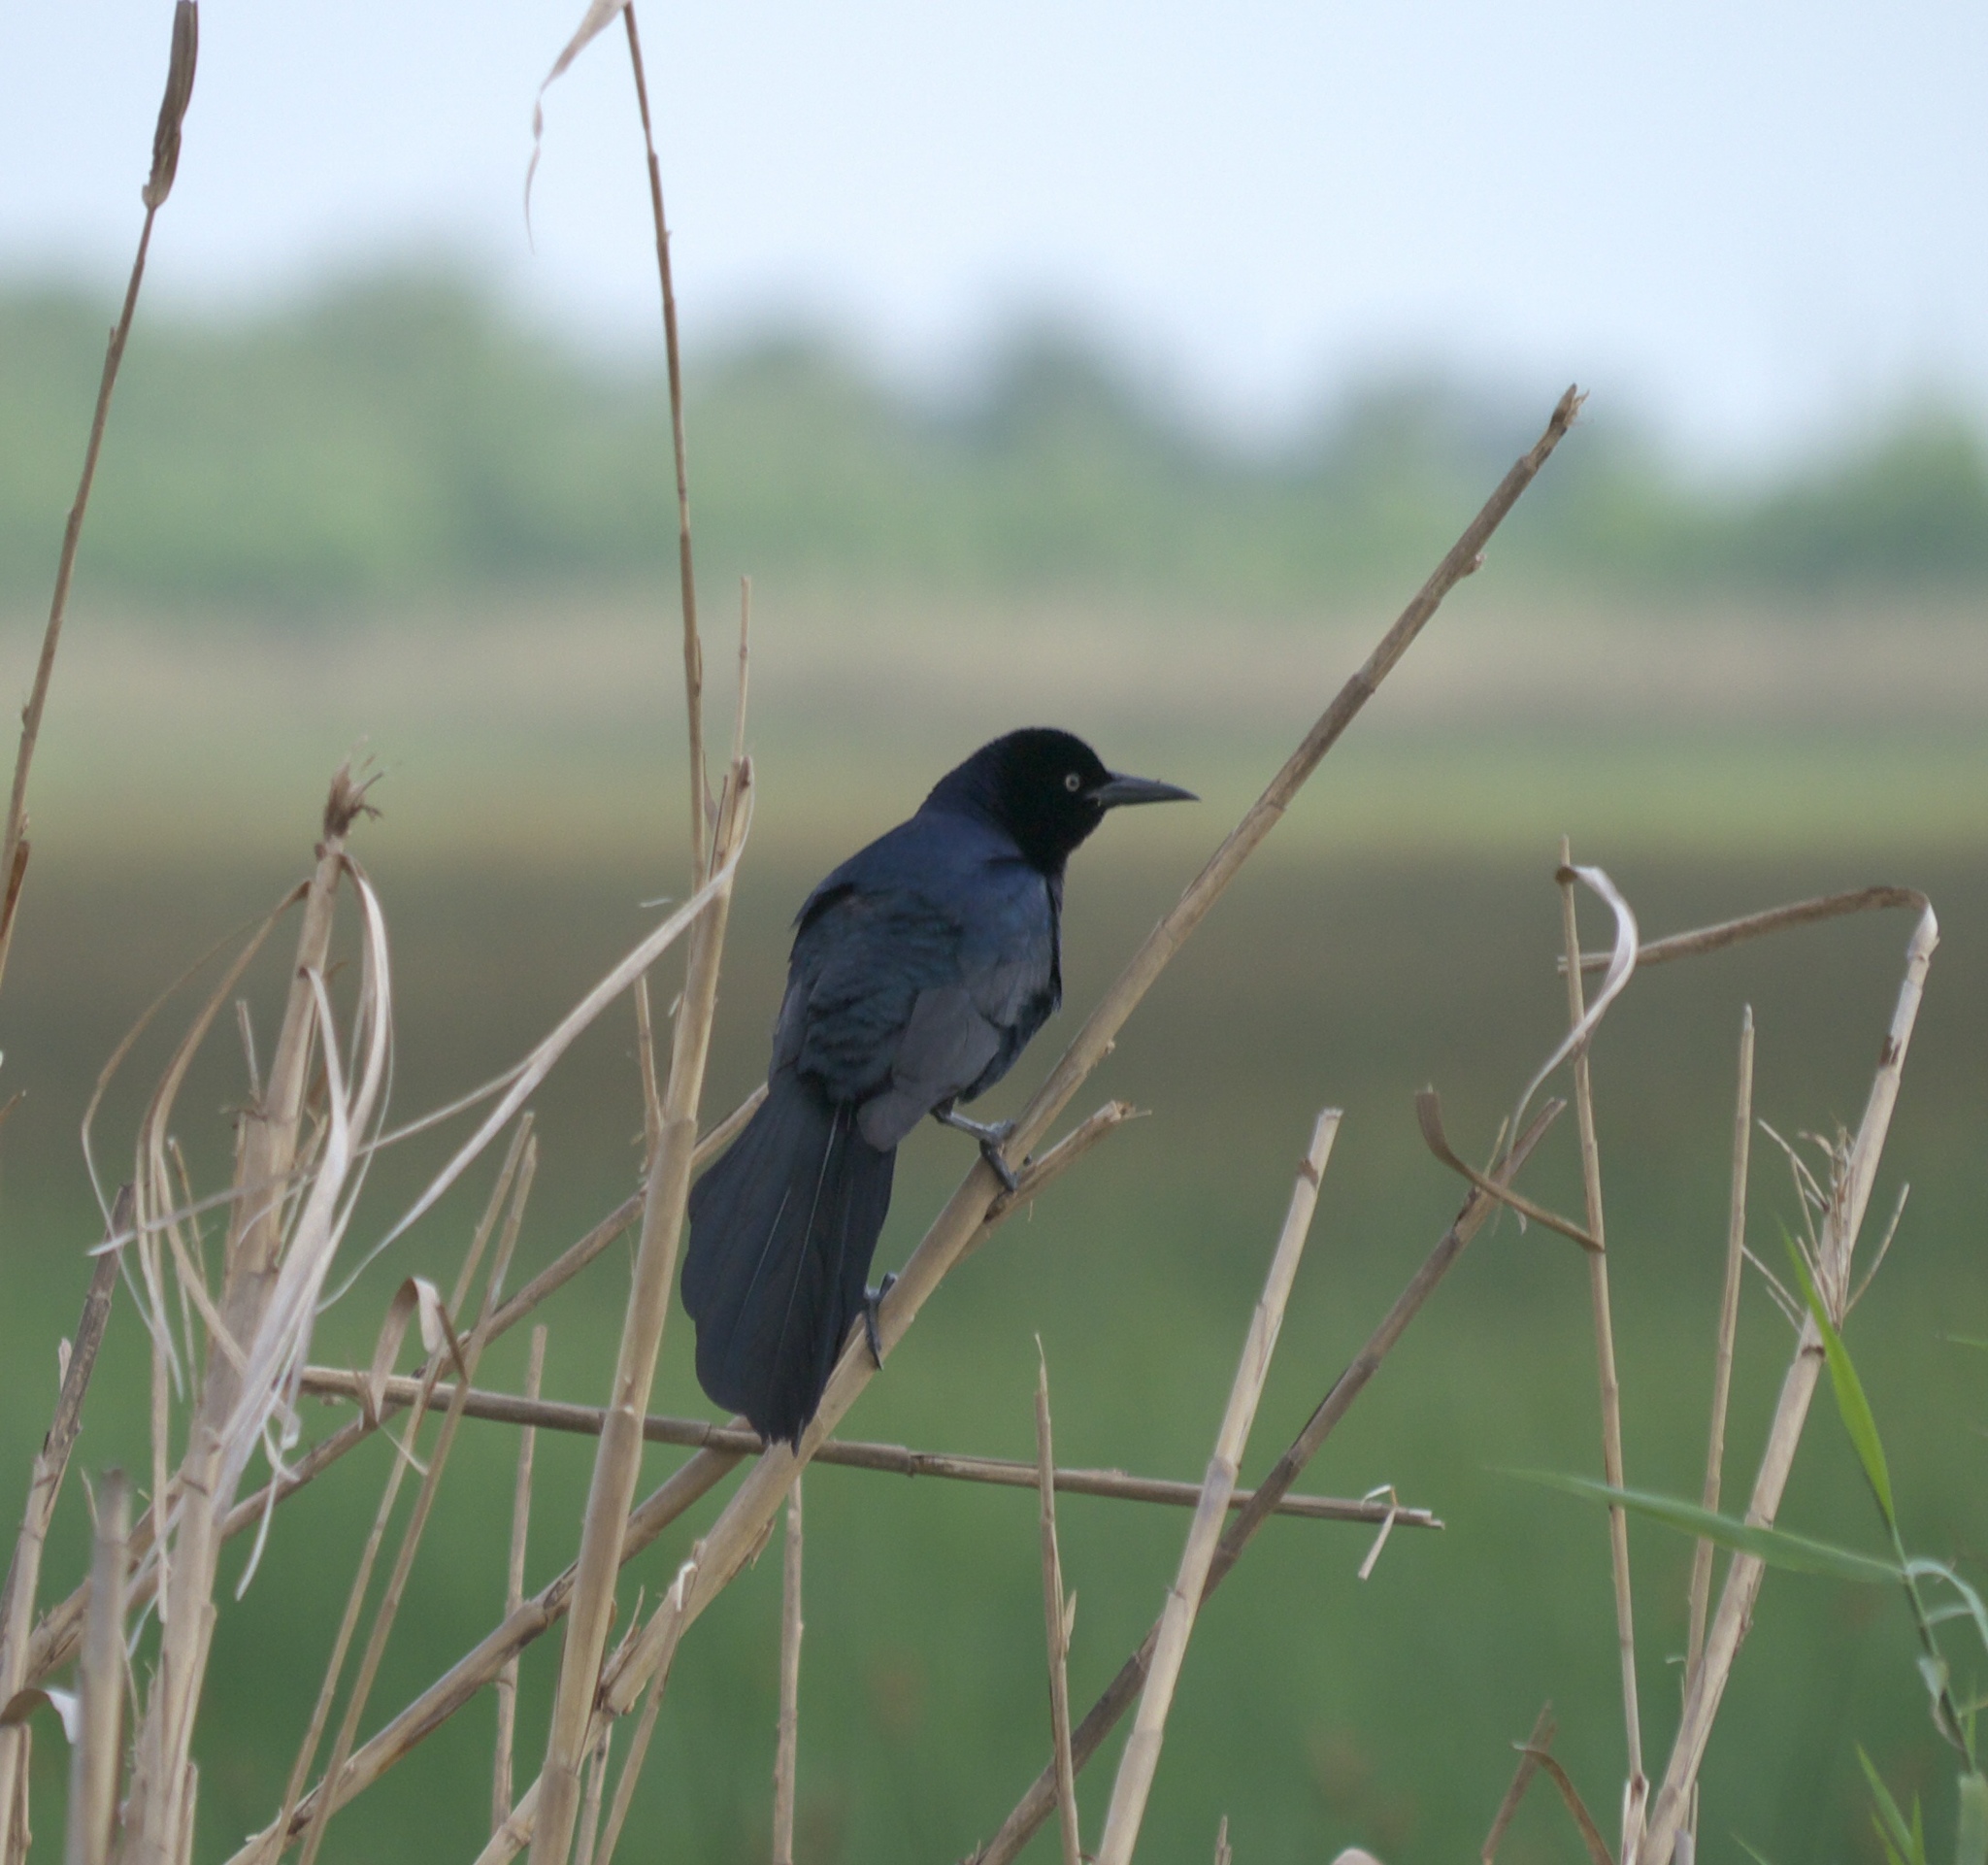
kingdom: Animalia
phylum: Chordata
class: Aves
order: Passeriformes
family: Icteridae
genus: Quiscalus
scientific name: Quiscalus mexicanus
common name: Great-tailed grackle
